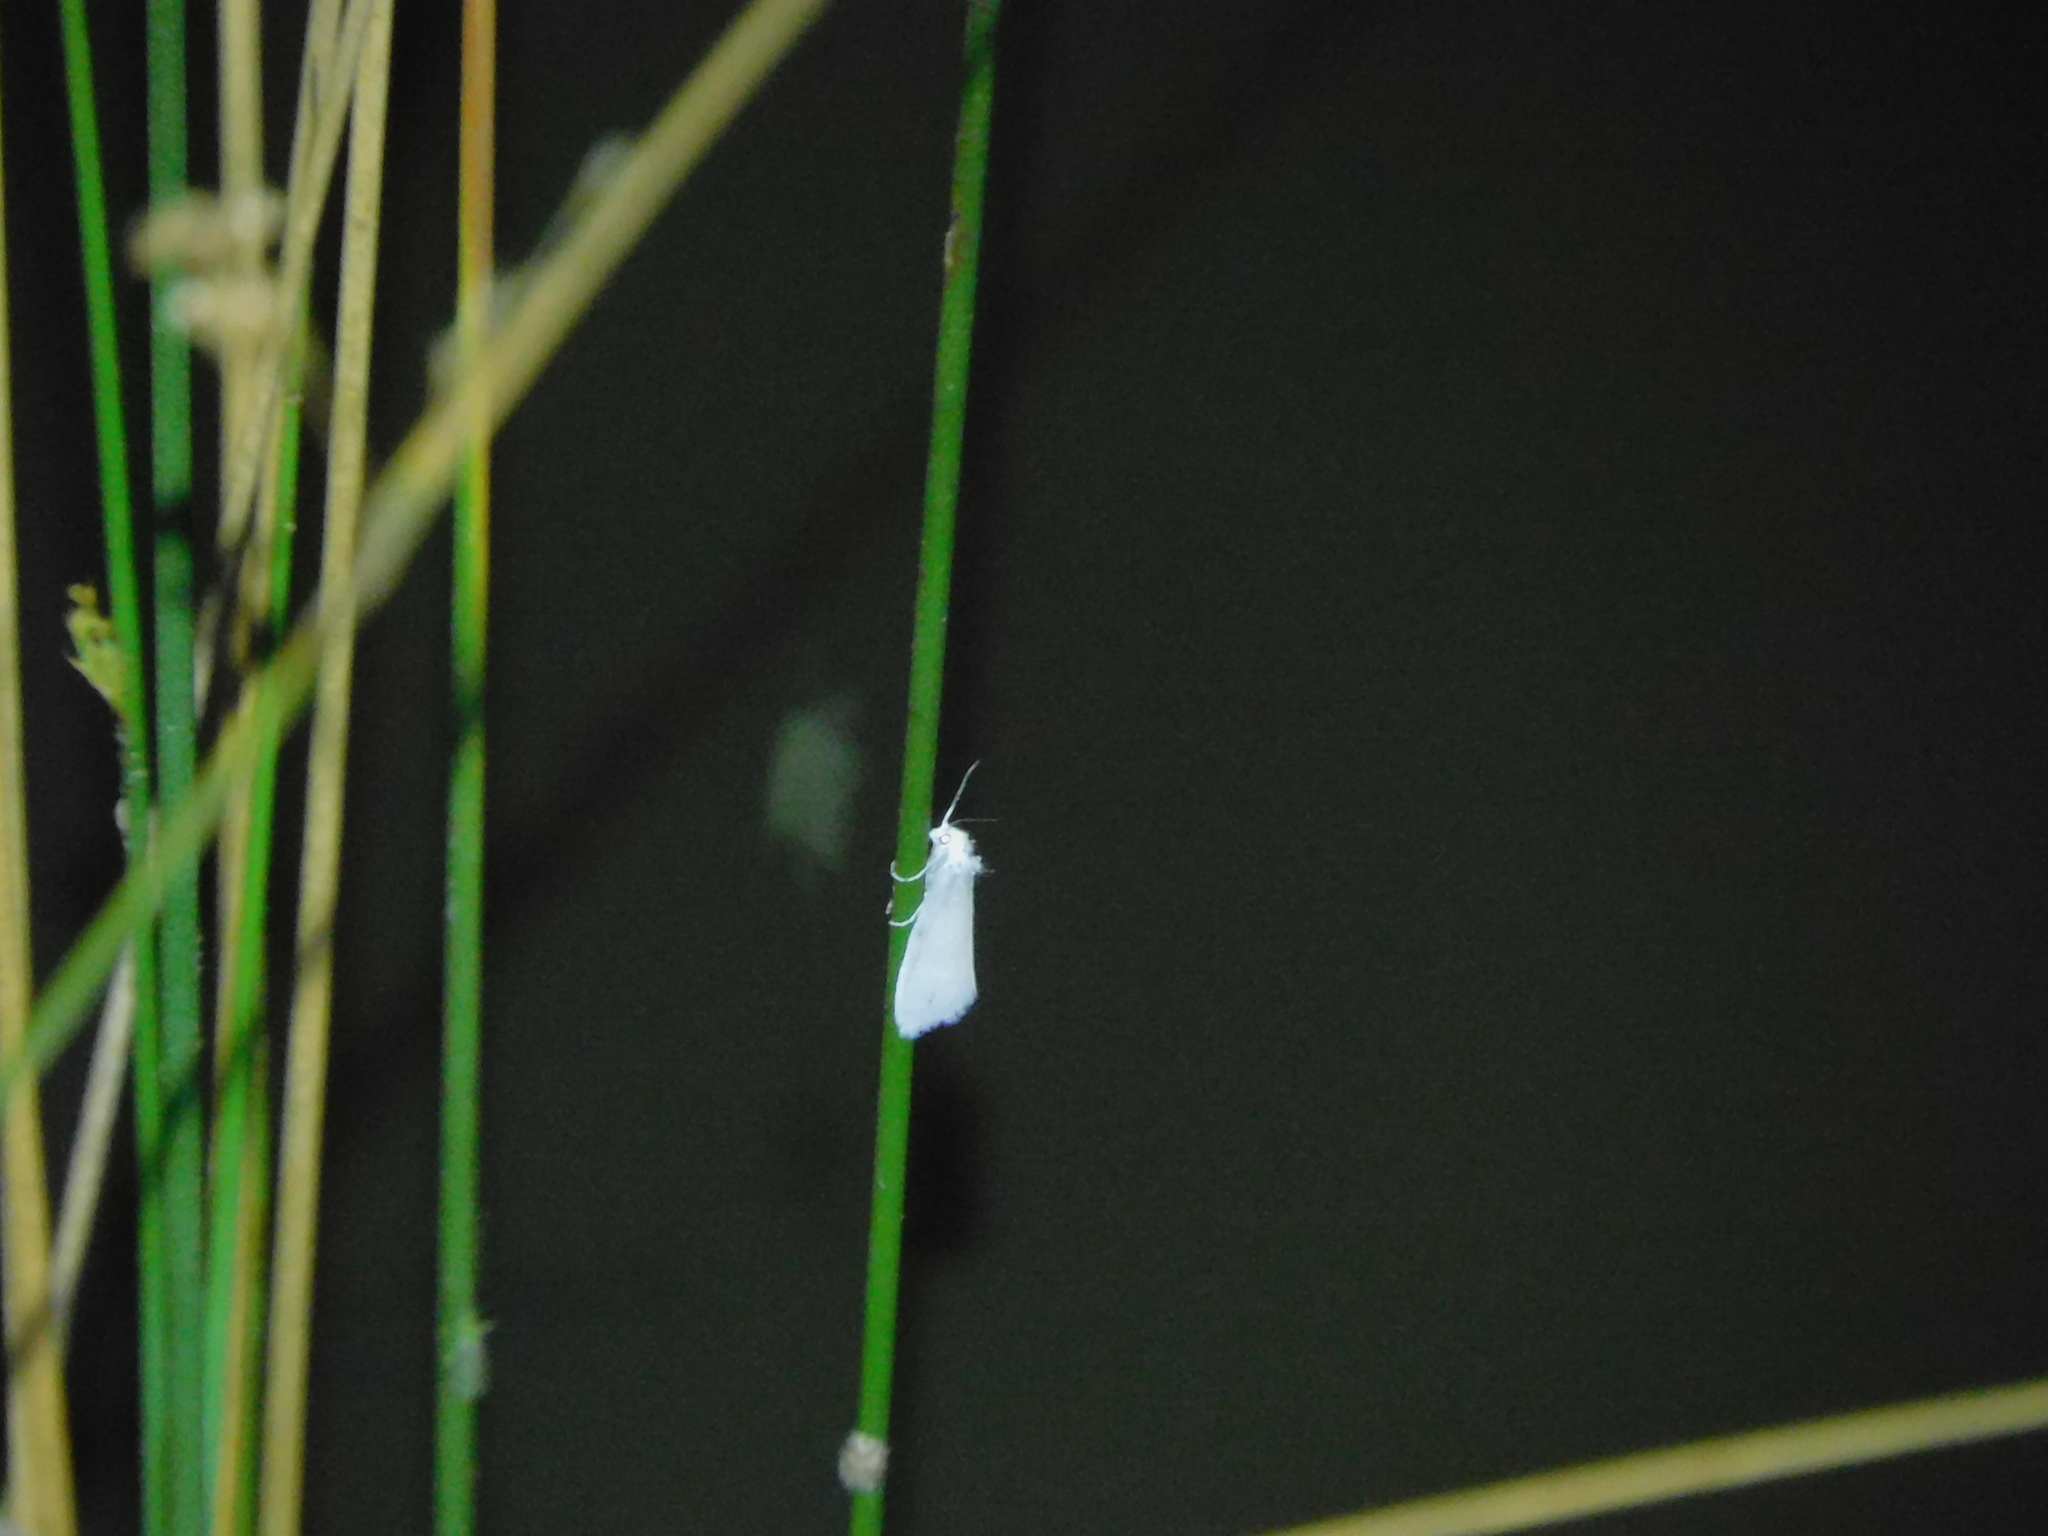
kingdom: Animalia
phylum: Arthropoda
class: Insecta
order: Lepidoptera
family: Crambidae
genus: Tipanaea
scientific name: Tipanaea patulella
